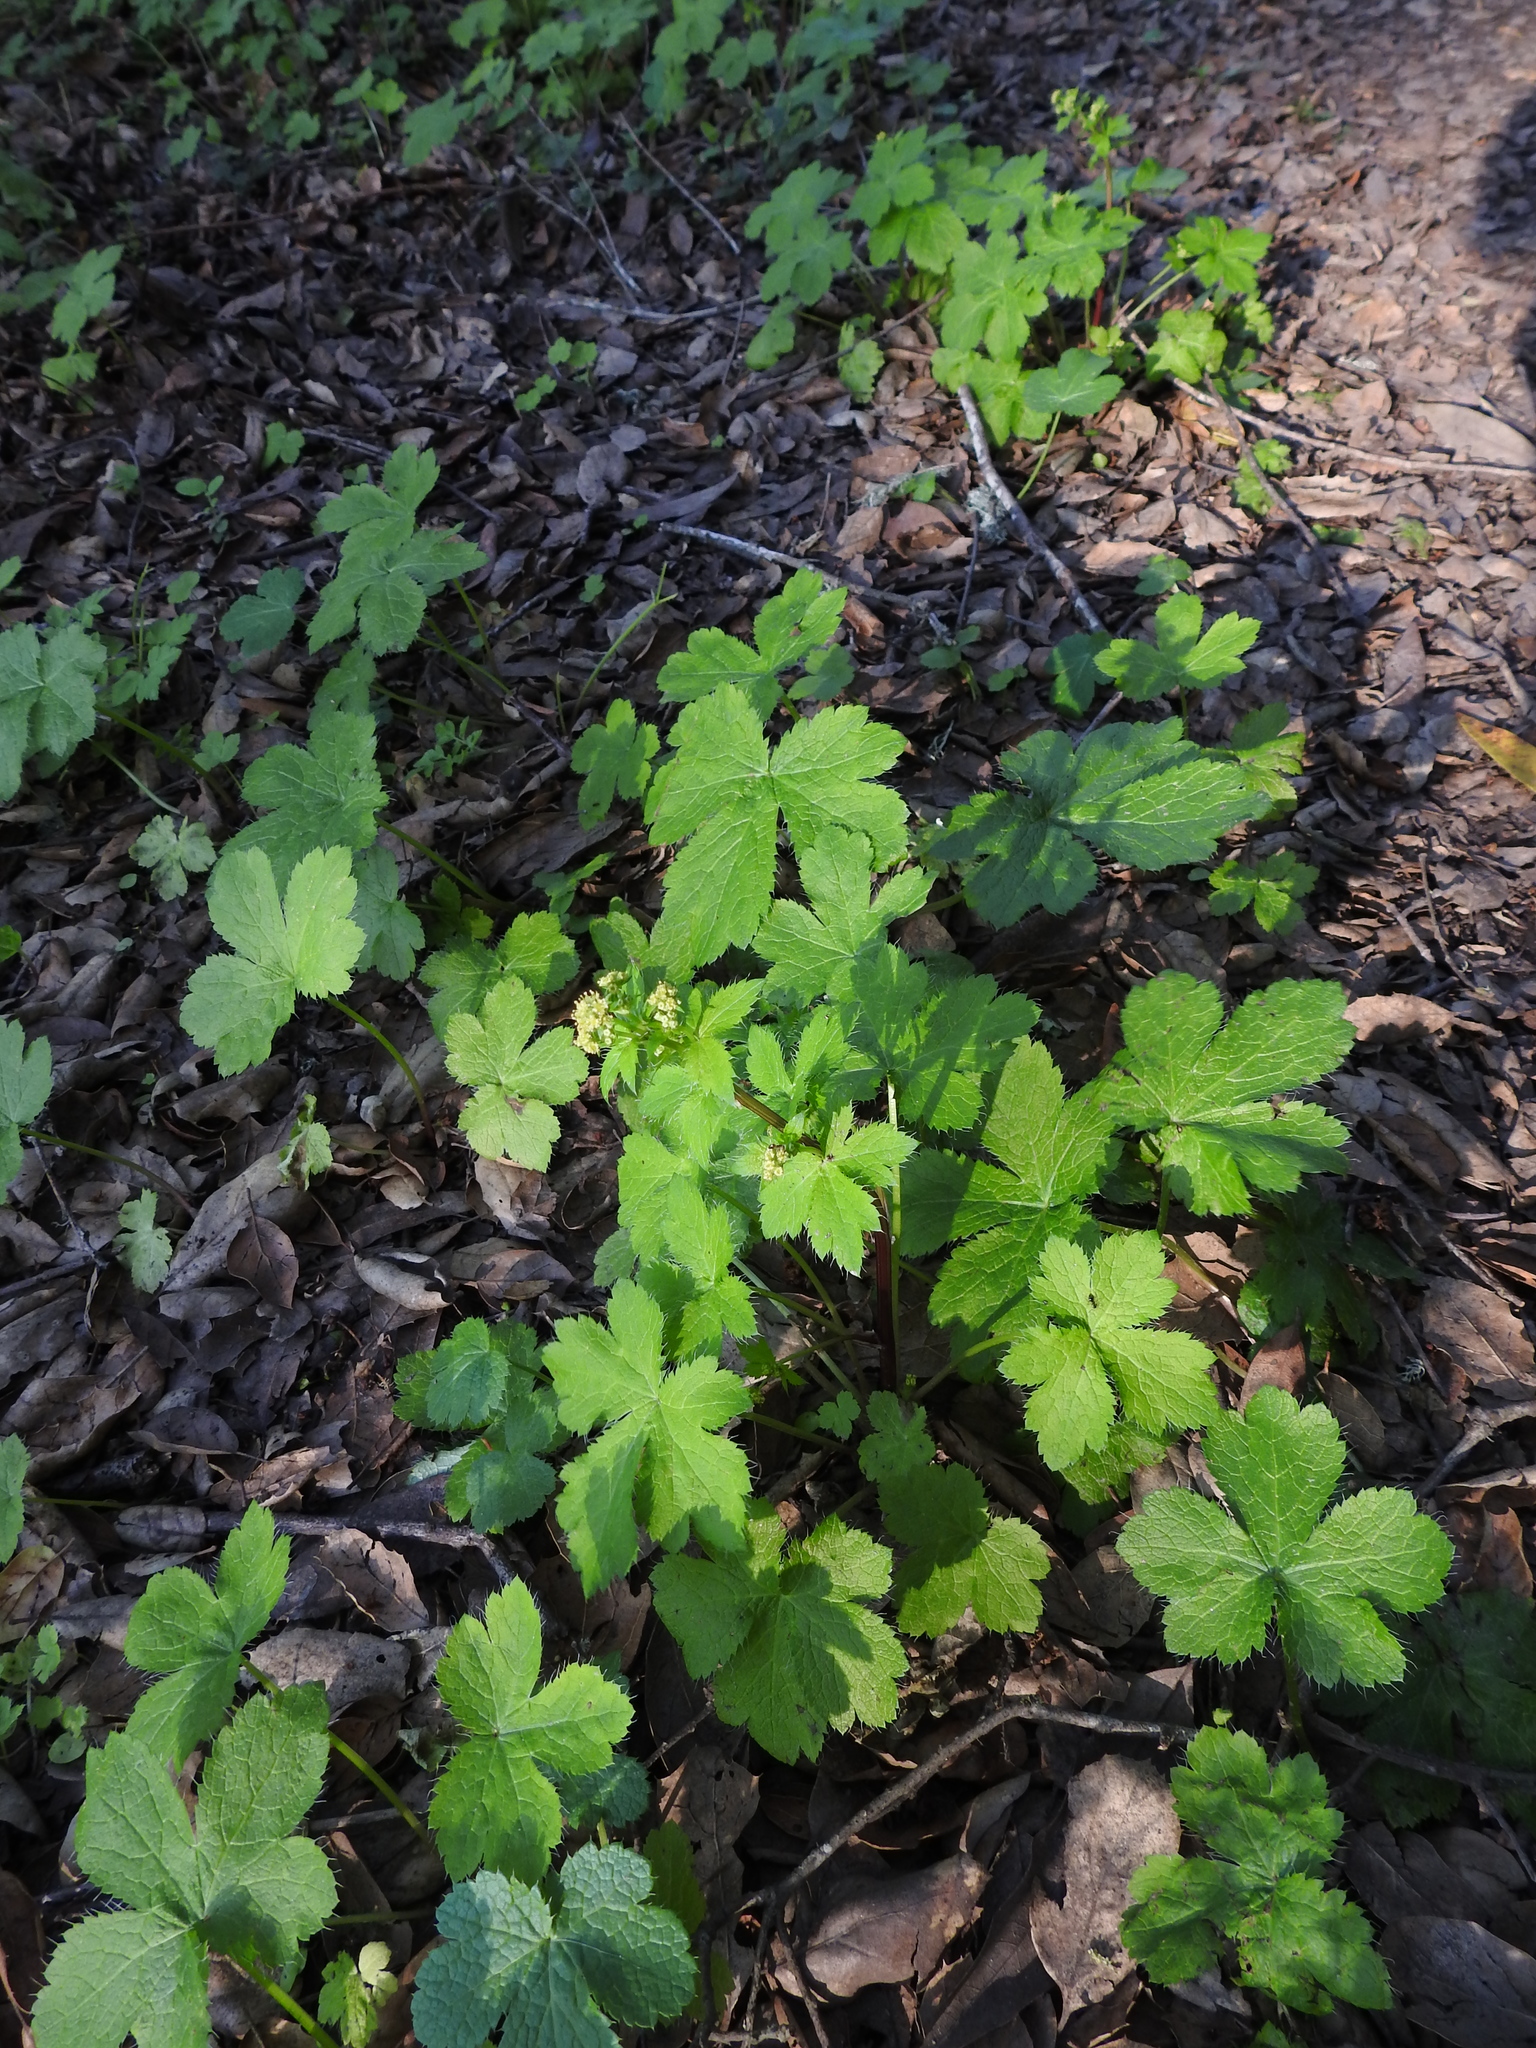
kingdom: Plantae
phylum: Tracheophyta
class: Magnoliopsida
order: Apiales
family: Apiaceae
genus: Sanicula
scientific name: Sanicula crassicaulis
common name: Western snakeroot
